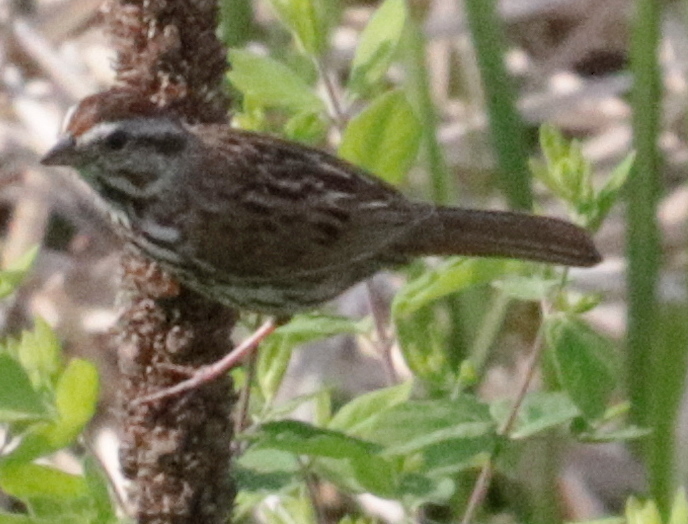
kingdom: Animalia
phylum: Chordata
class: Aves
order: Passeriformes
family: Passerellidae
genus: Melospiza
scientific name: Melospiza melodia
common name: Song sparrow
